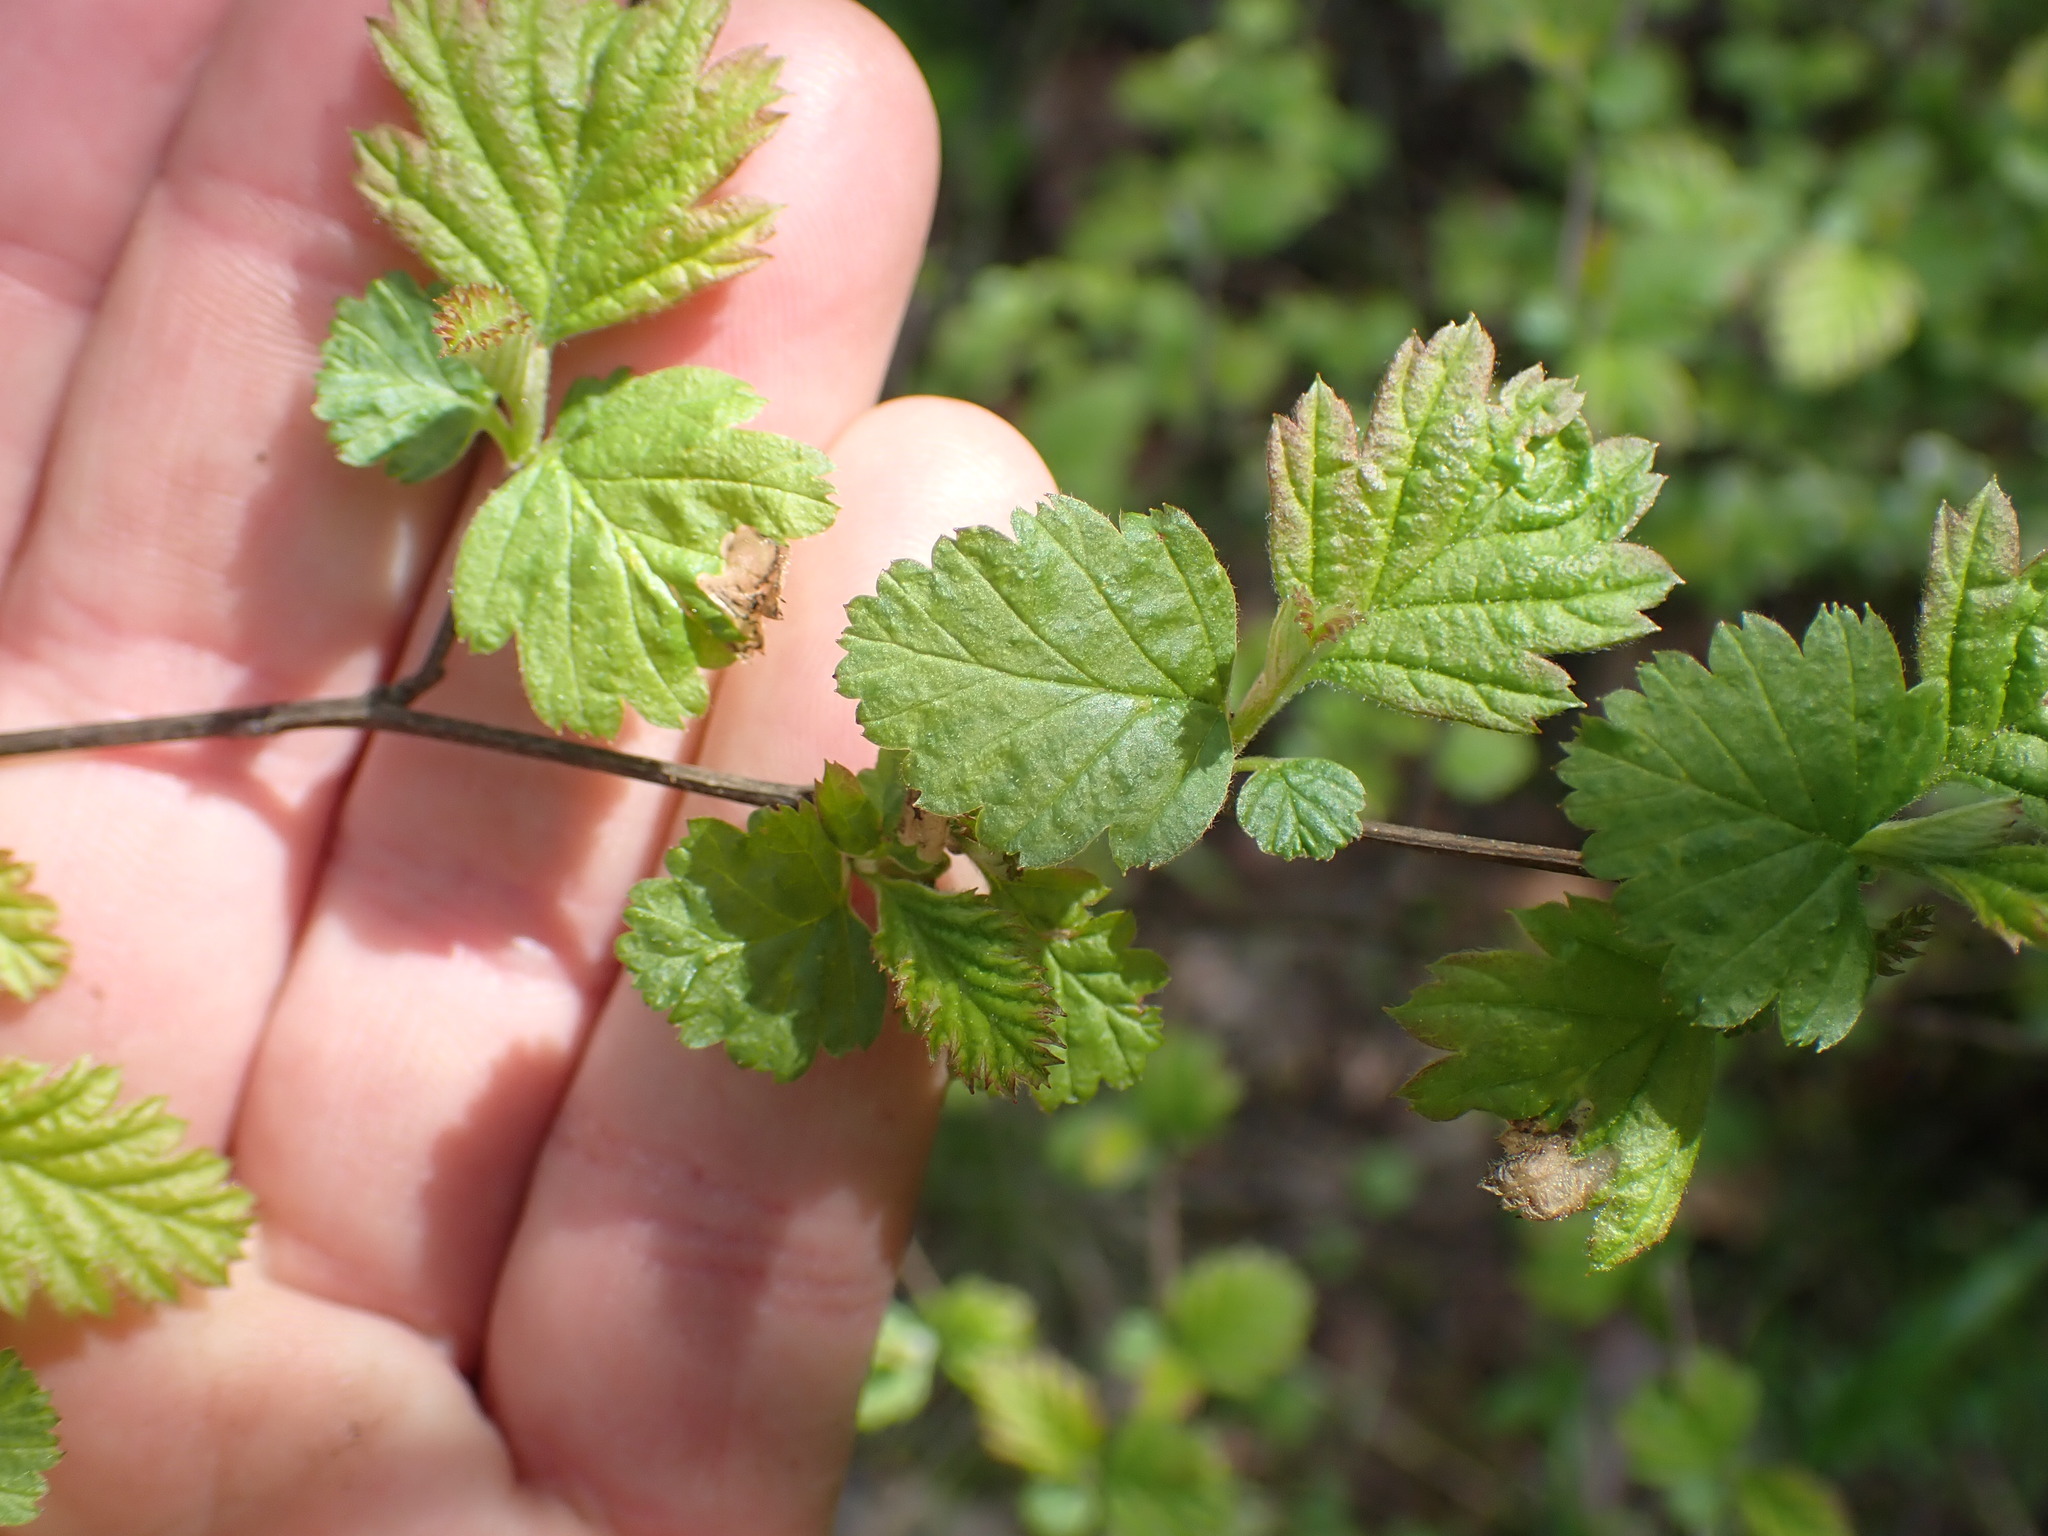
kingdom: Plantae
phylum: Tracheophyta
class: Magnoliopsida
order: Rosales
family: Rosaceae
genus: Holodiscus
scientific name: Holodiscus discolor
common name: Oceanspray
